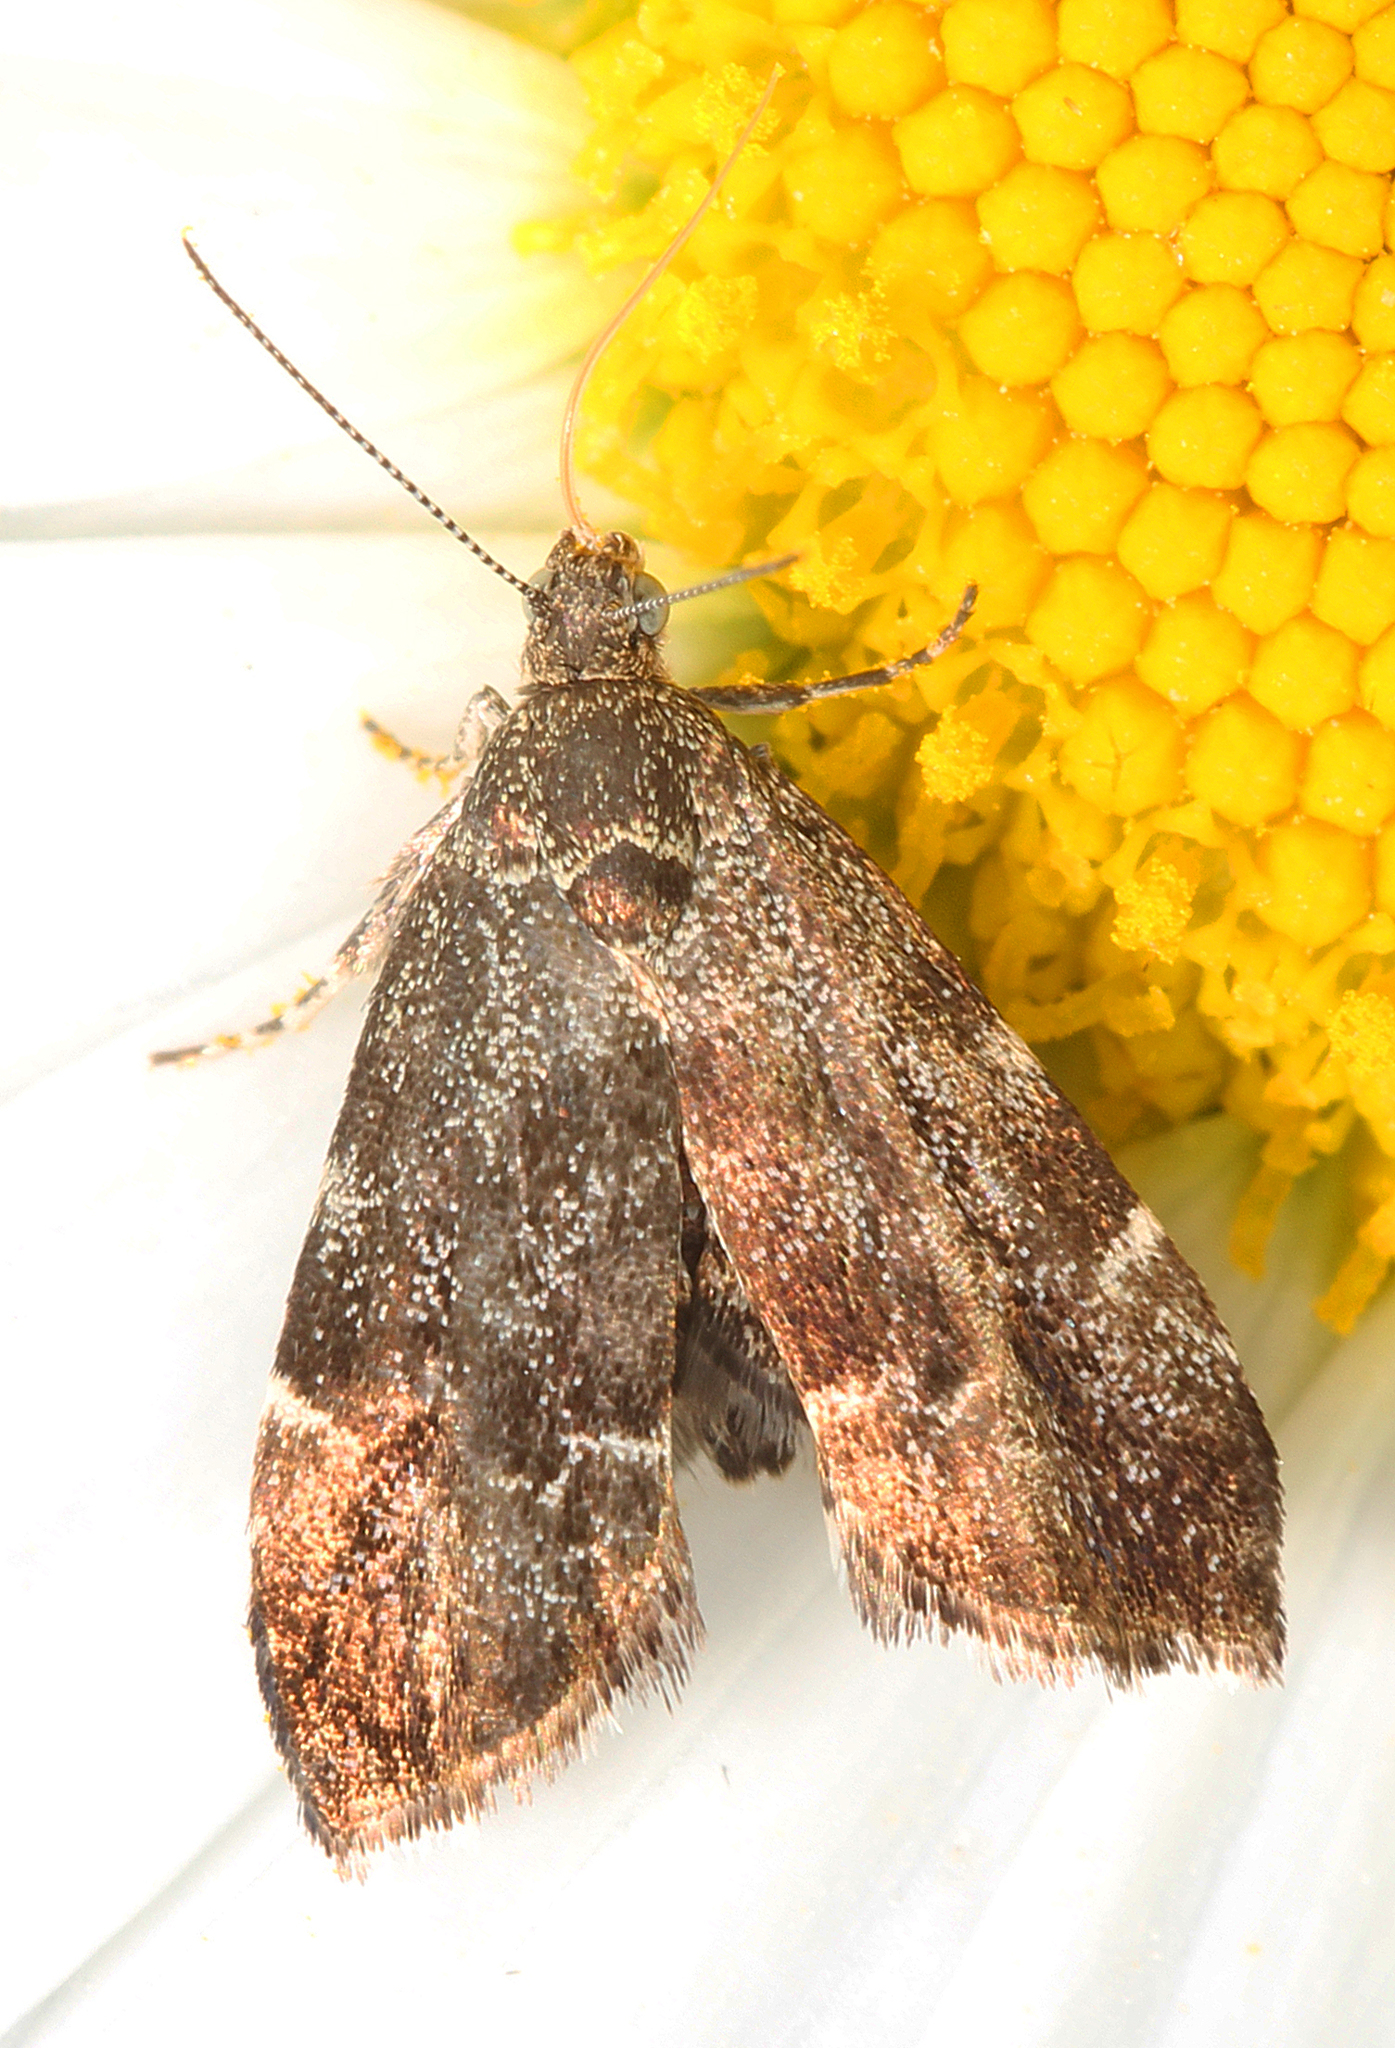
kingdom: Animalia
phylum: Arthropoda
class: Insecta
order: Lepidoptera
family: Choreutidae
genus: Anthophila
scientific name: Anthophila fabriciana
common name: Nettle-tap
